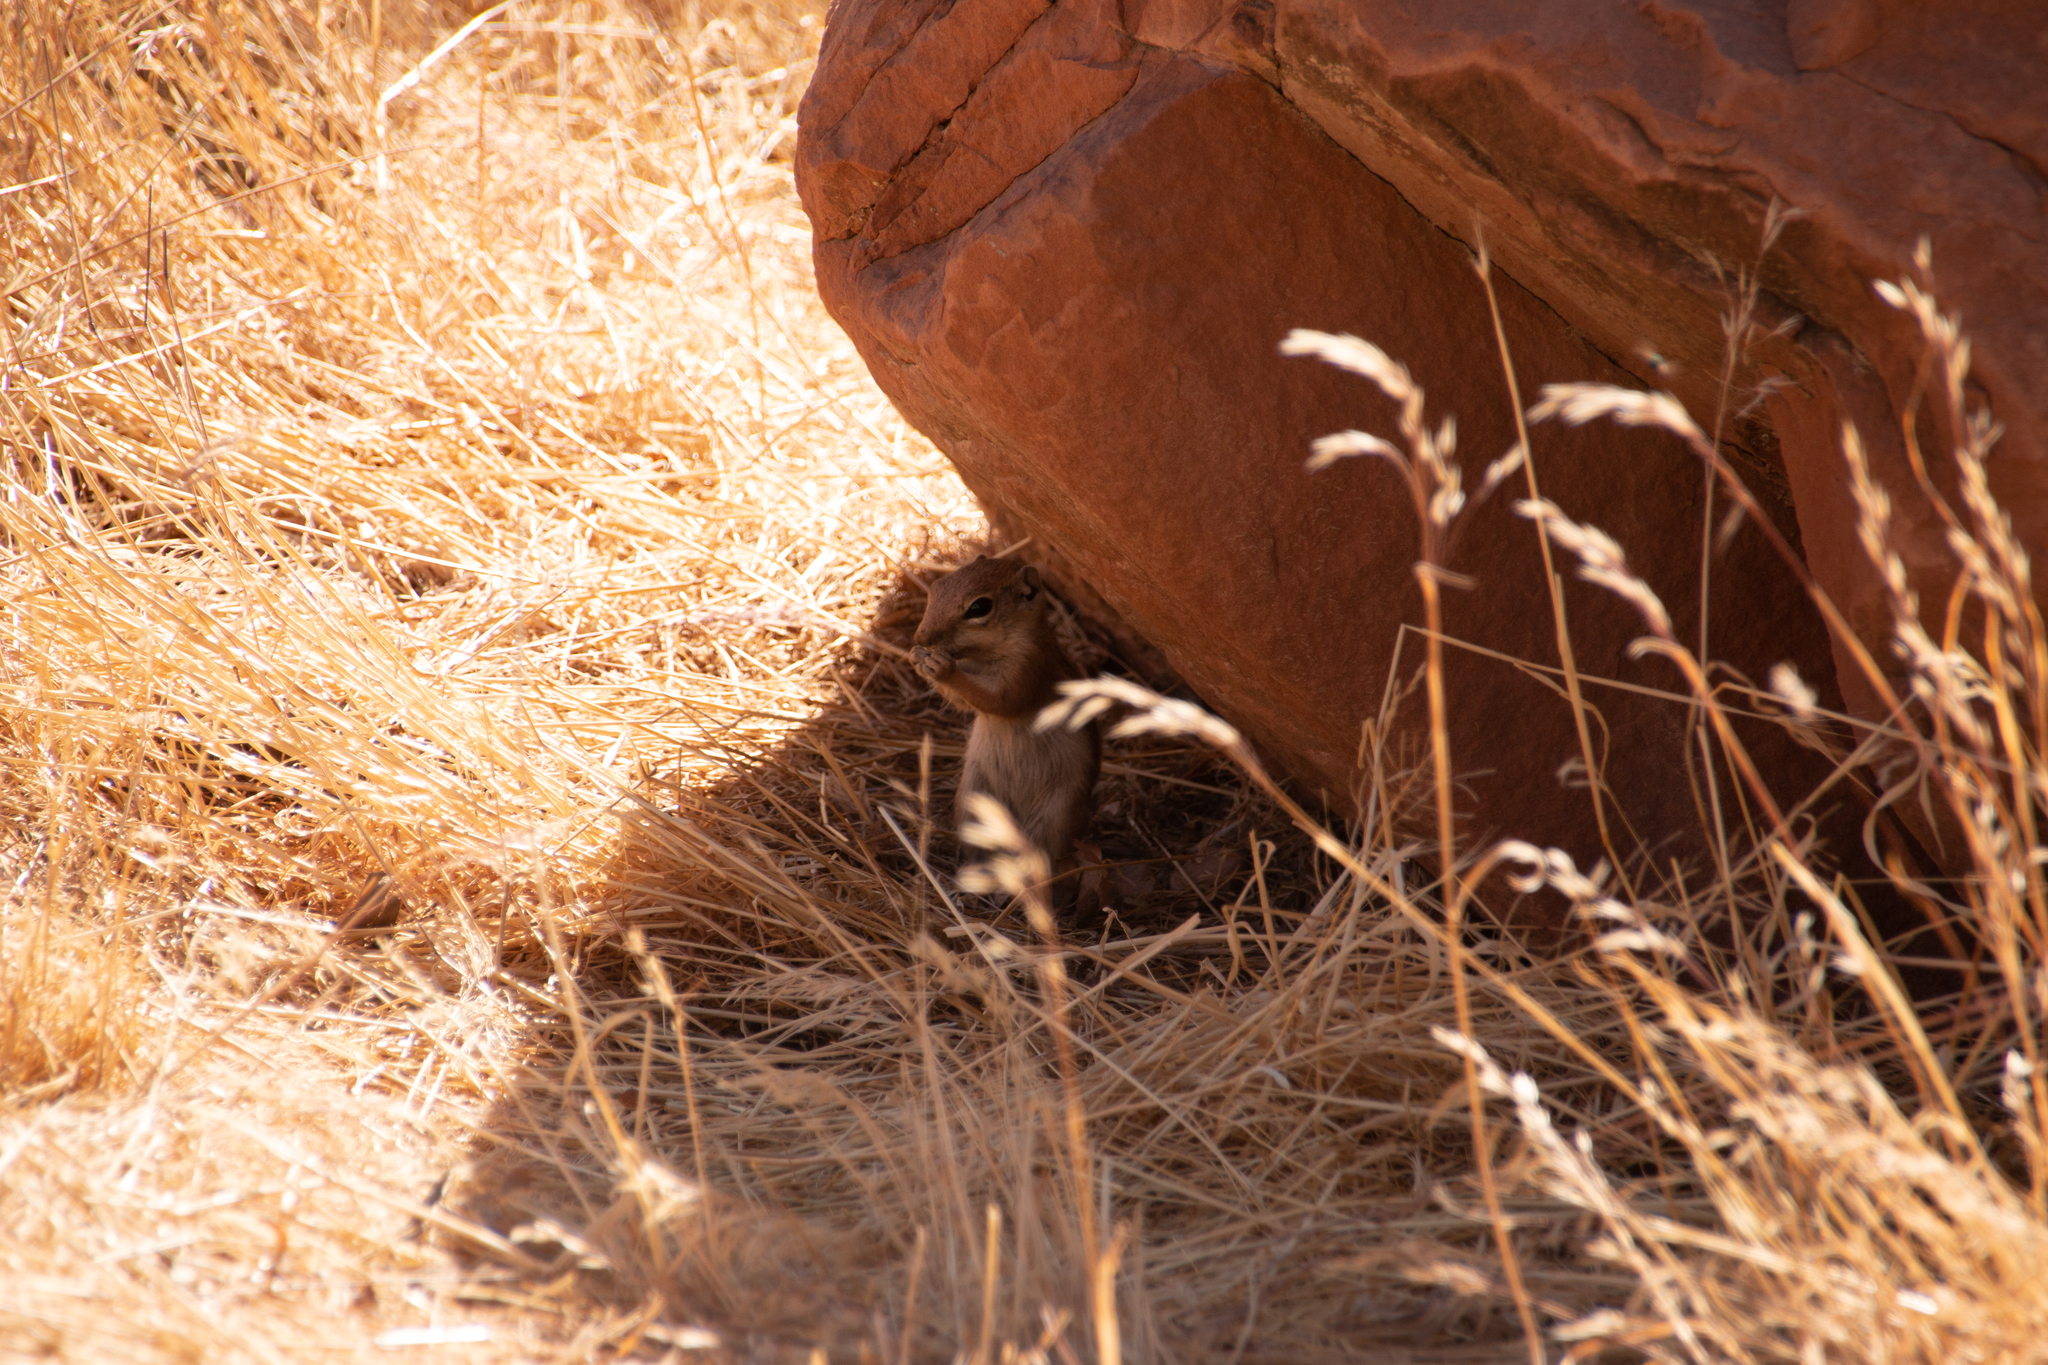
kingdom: Animalia
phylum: Chordata
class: Mammalia
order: Rodentia
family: Sciuridae
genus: Ammospermophilus
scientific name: Ammospermophilus leucurus
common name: White-tailed antelope squirrel
